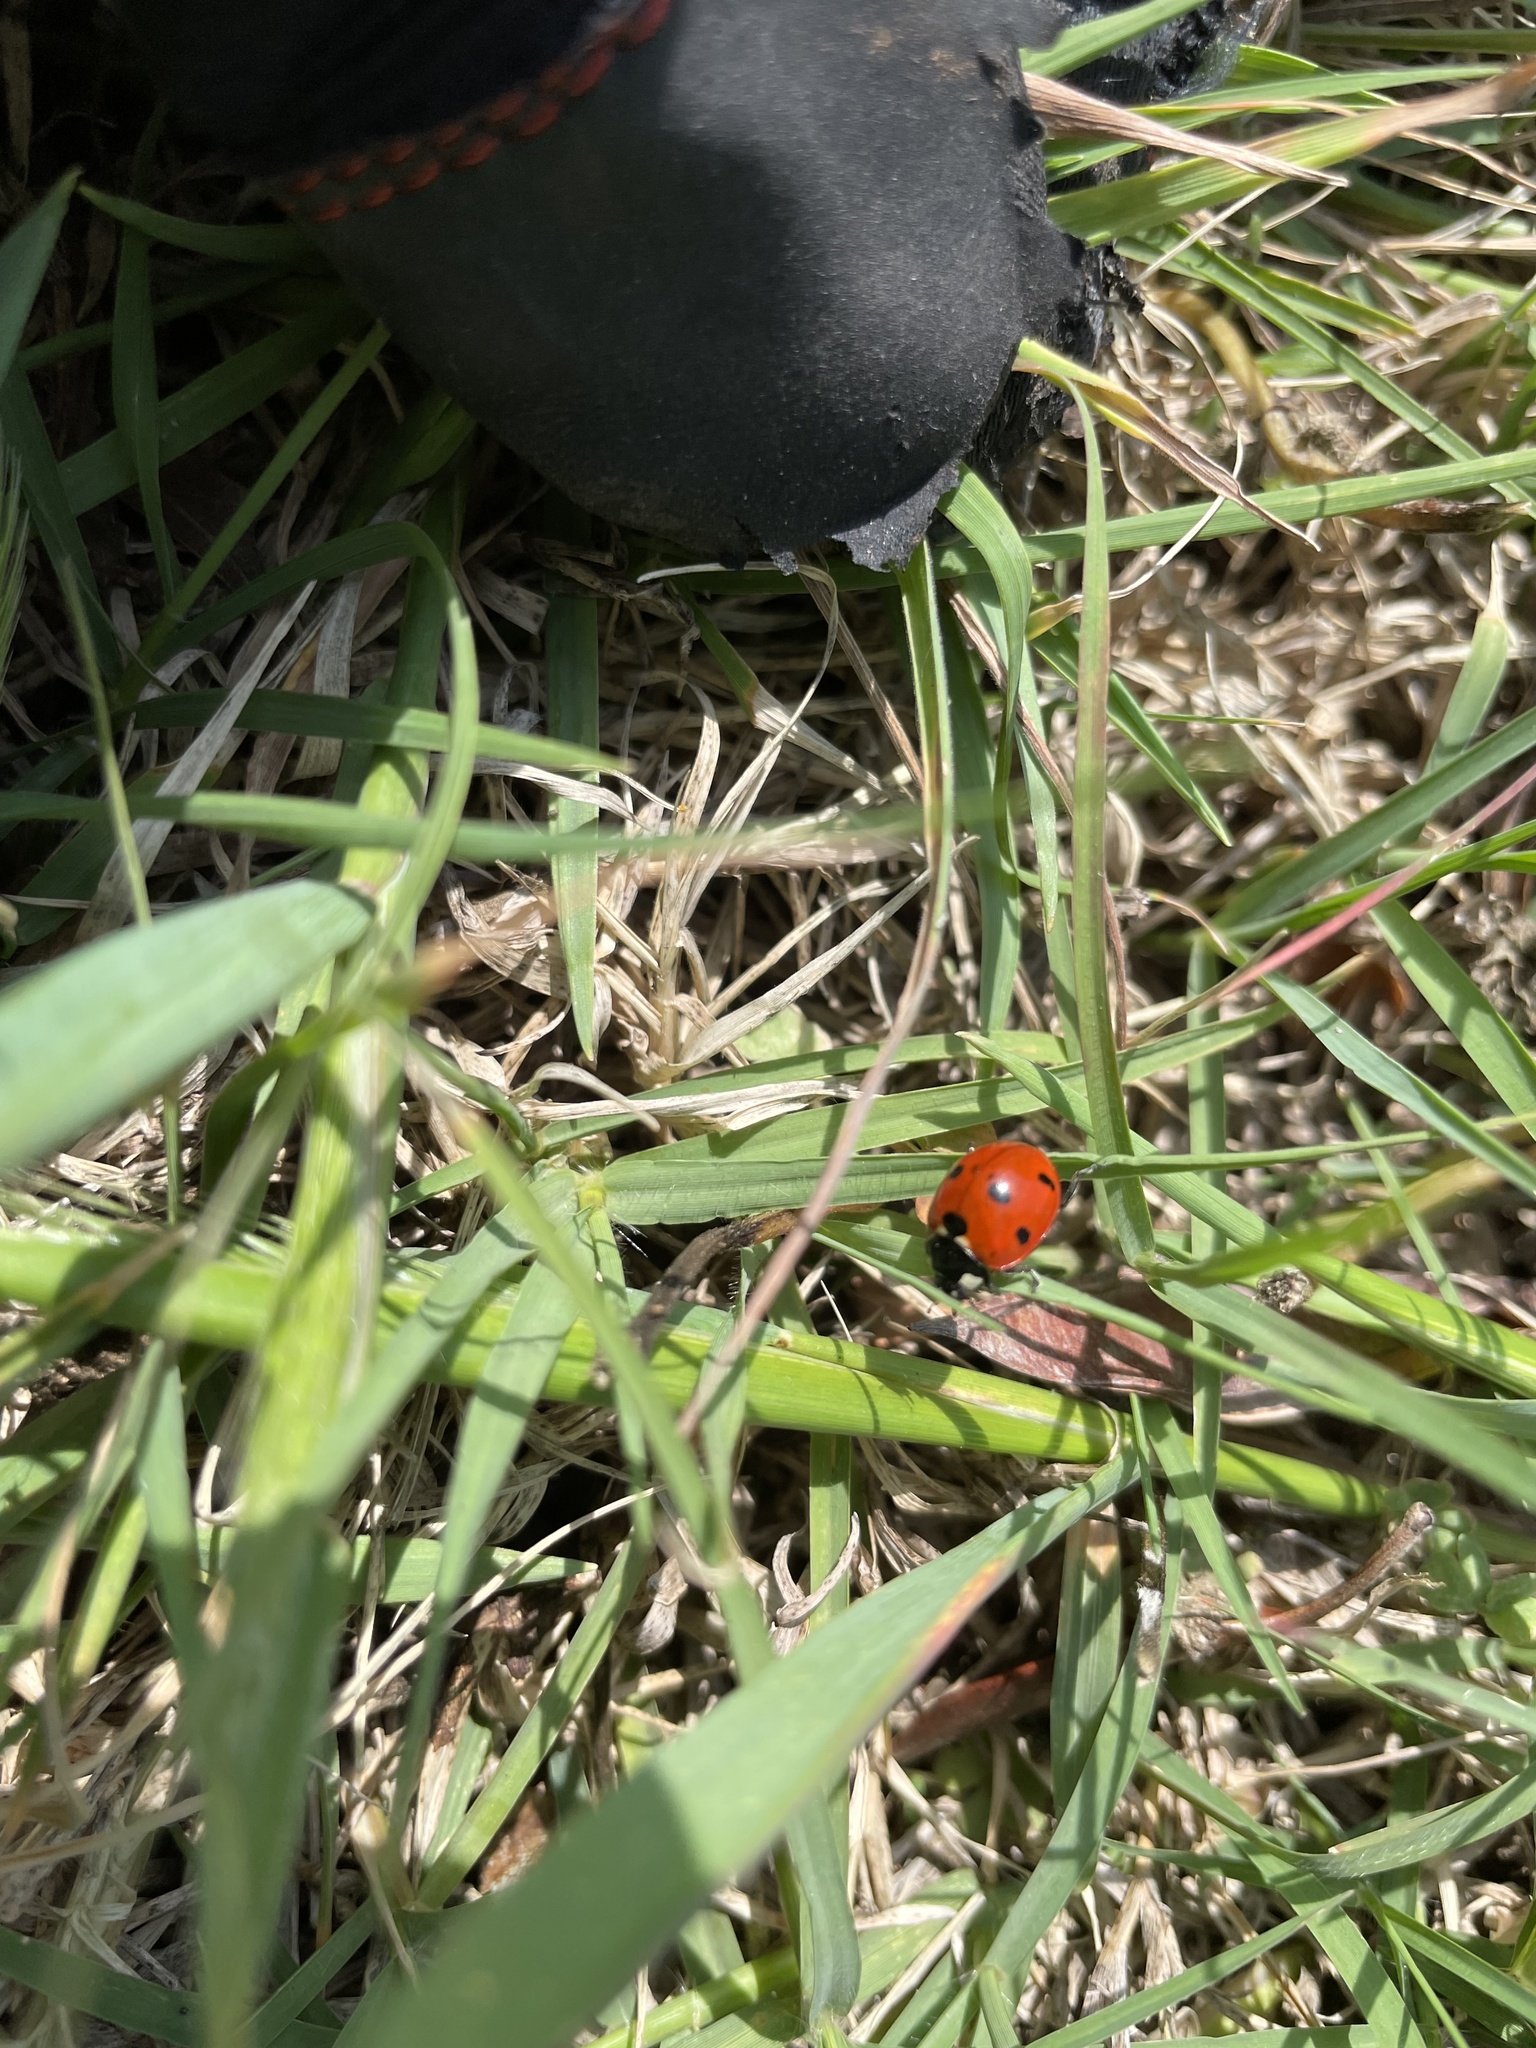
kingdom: Animalia
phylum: Arthropoda
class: Insecta
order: Coleoptera
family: Coccinellidae
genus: Coccinella
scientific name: Coccinella septempunctata
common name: Sevenspotted lady beetle
